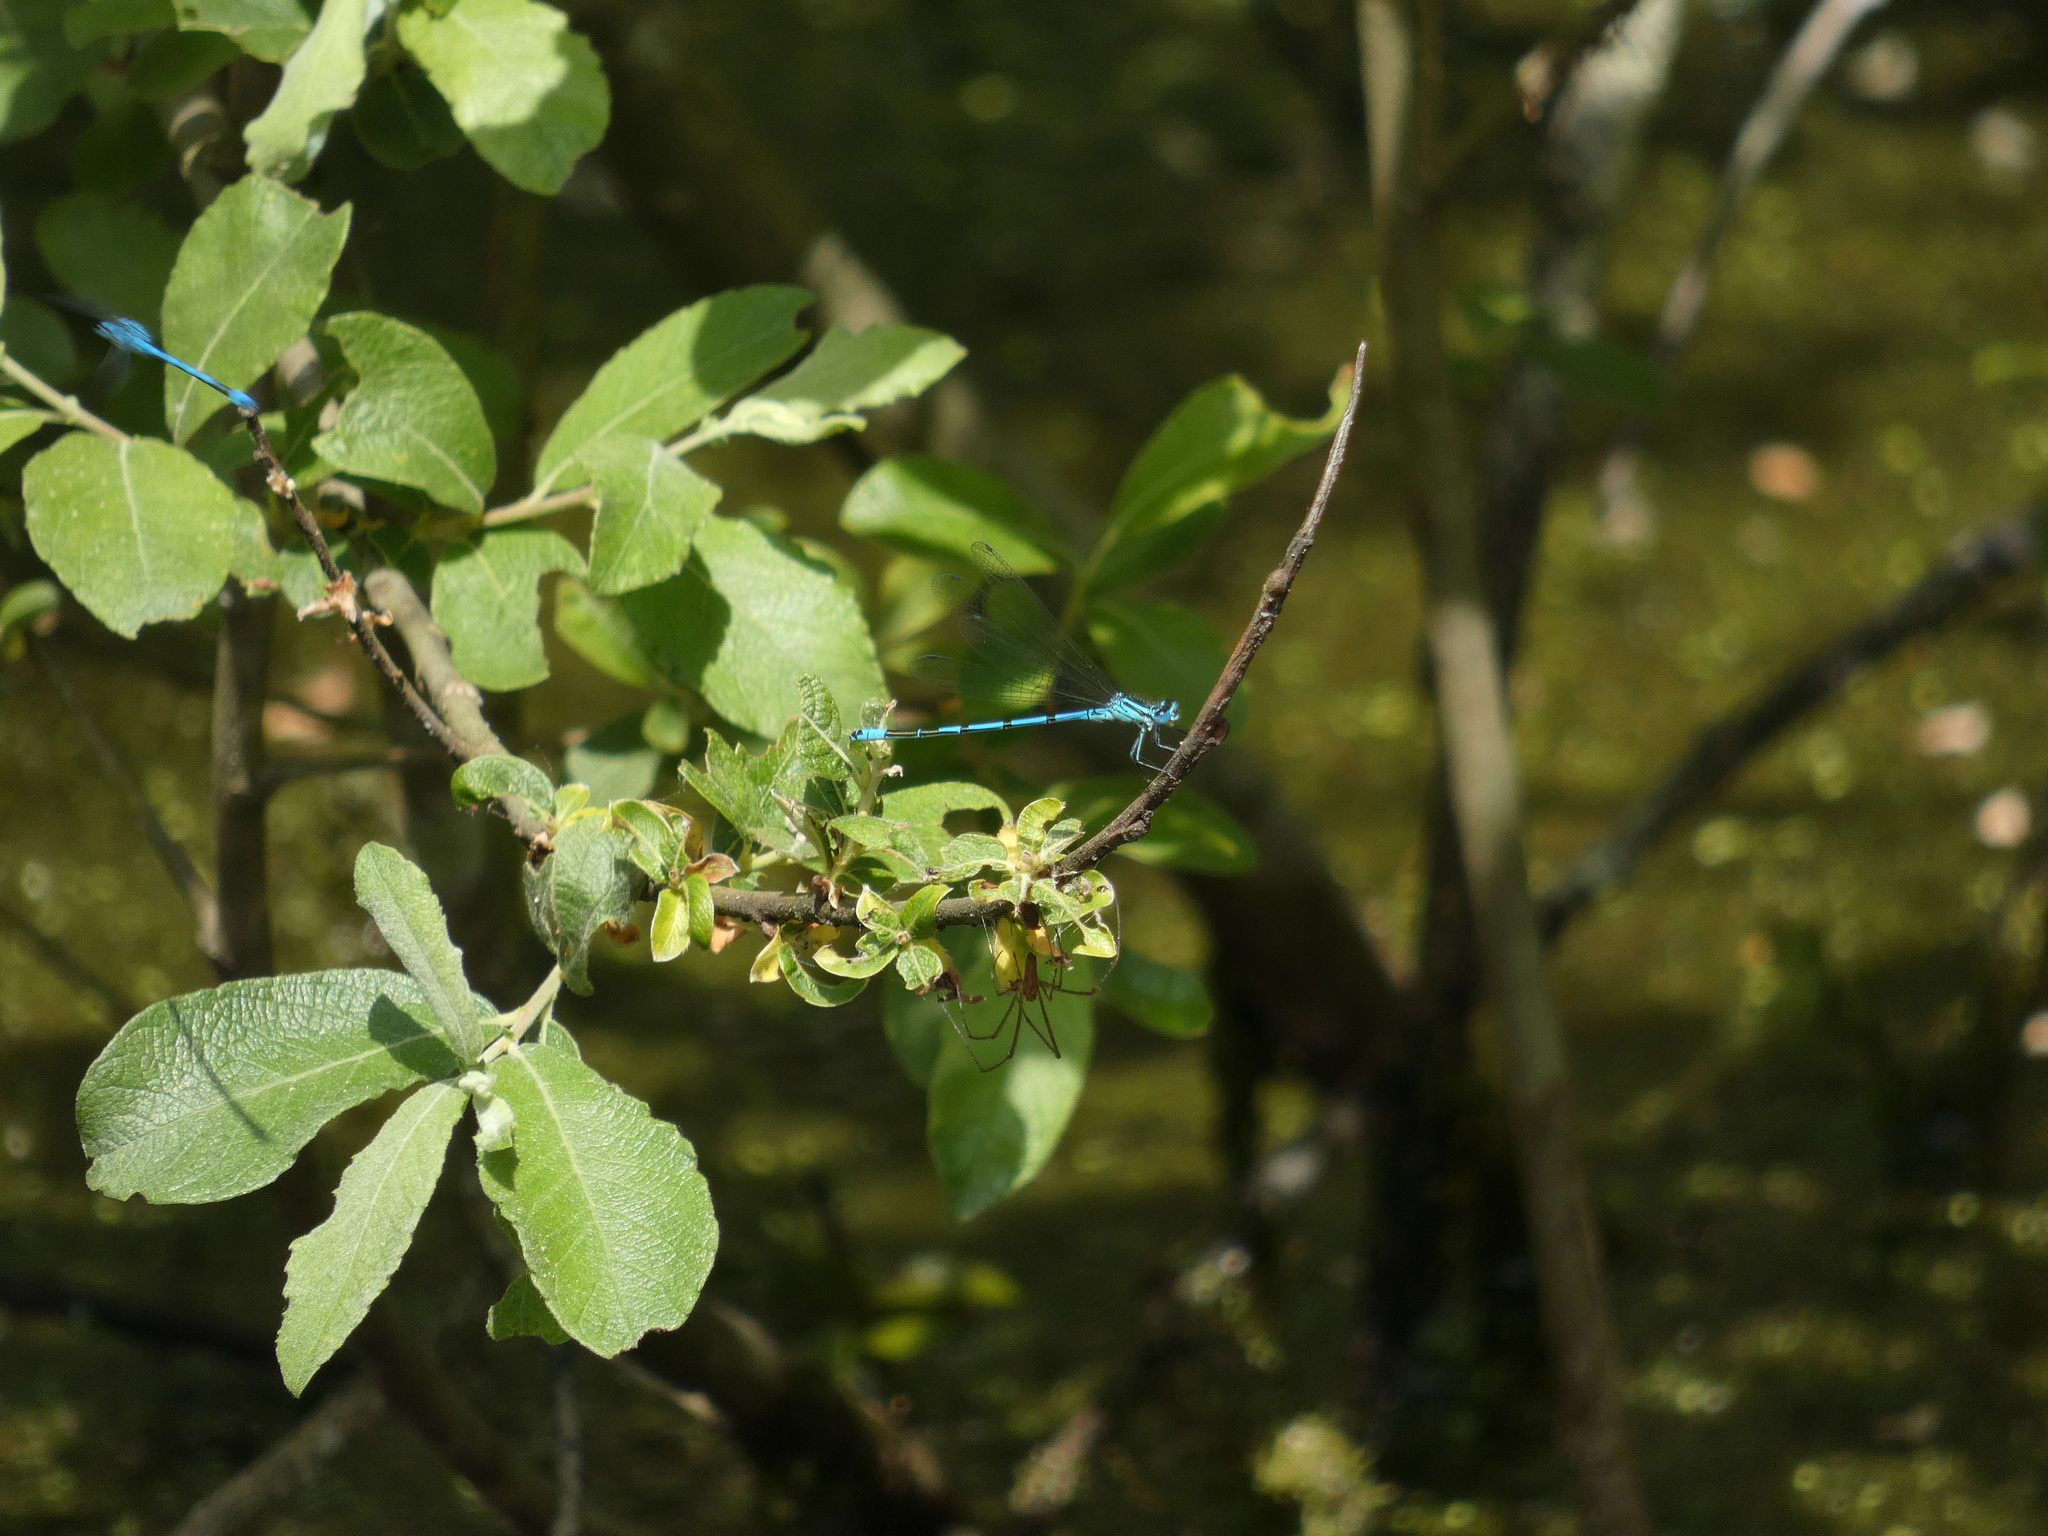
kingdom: Animalia
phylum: Arthropoda
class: Insecta
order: Odonata
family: Coenagrionidae
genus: Coenagrion
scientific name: Coenagrion puella
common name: Azure damselfly
